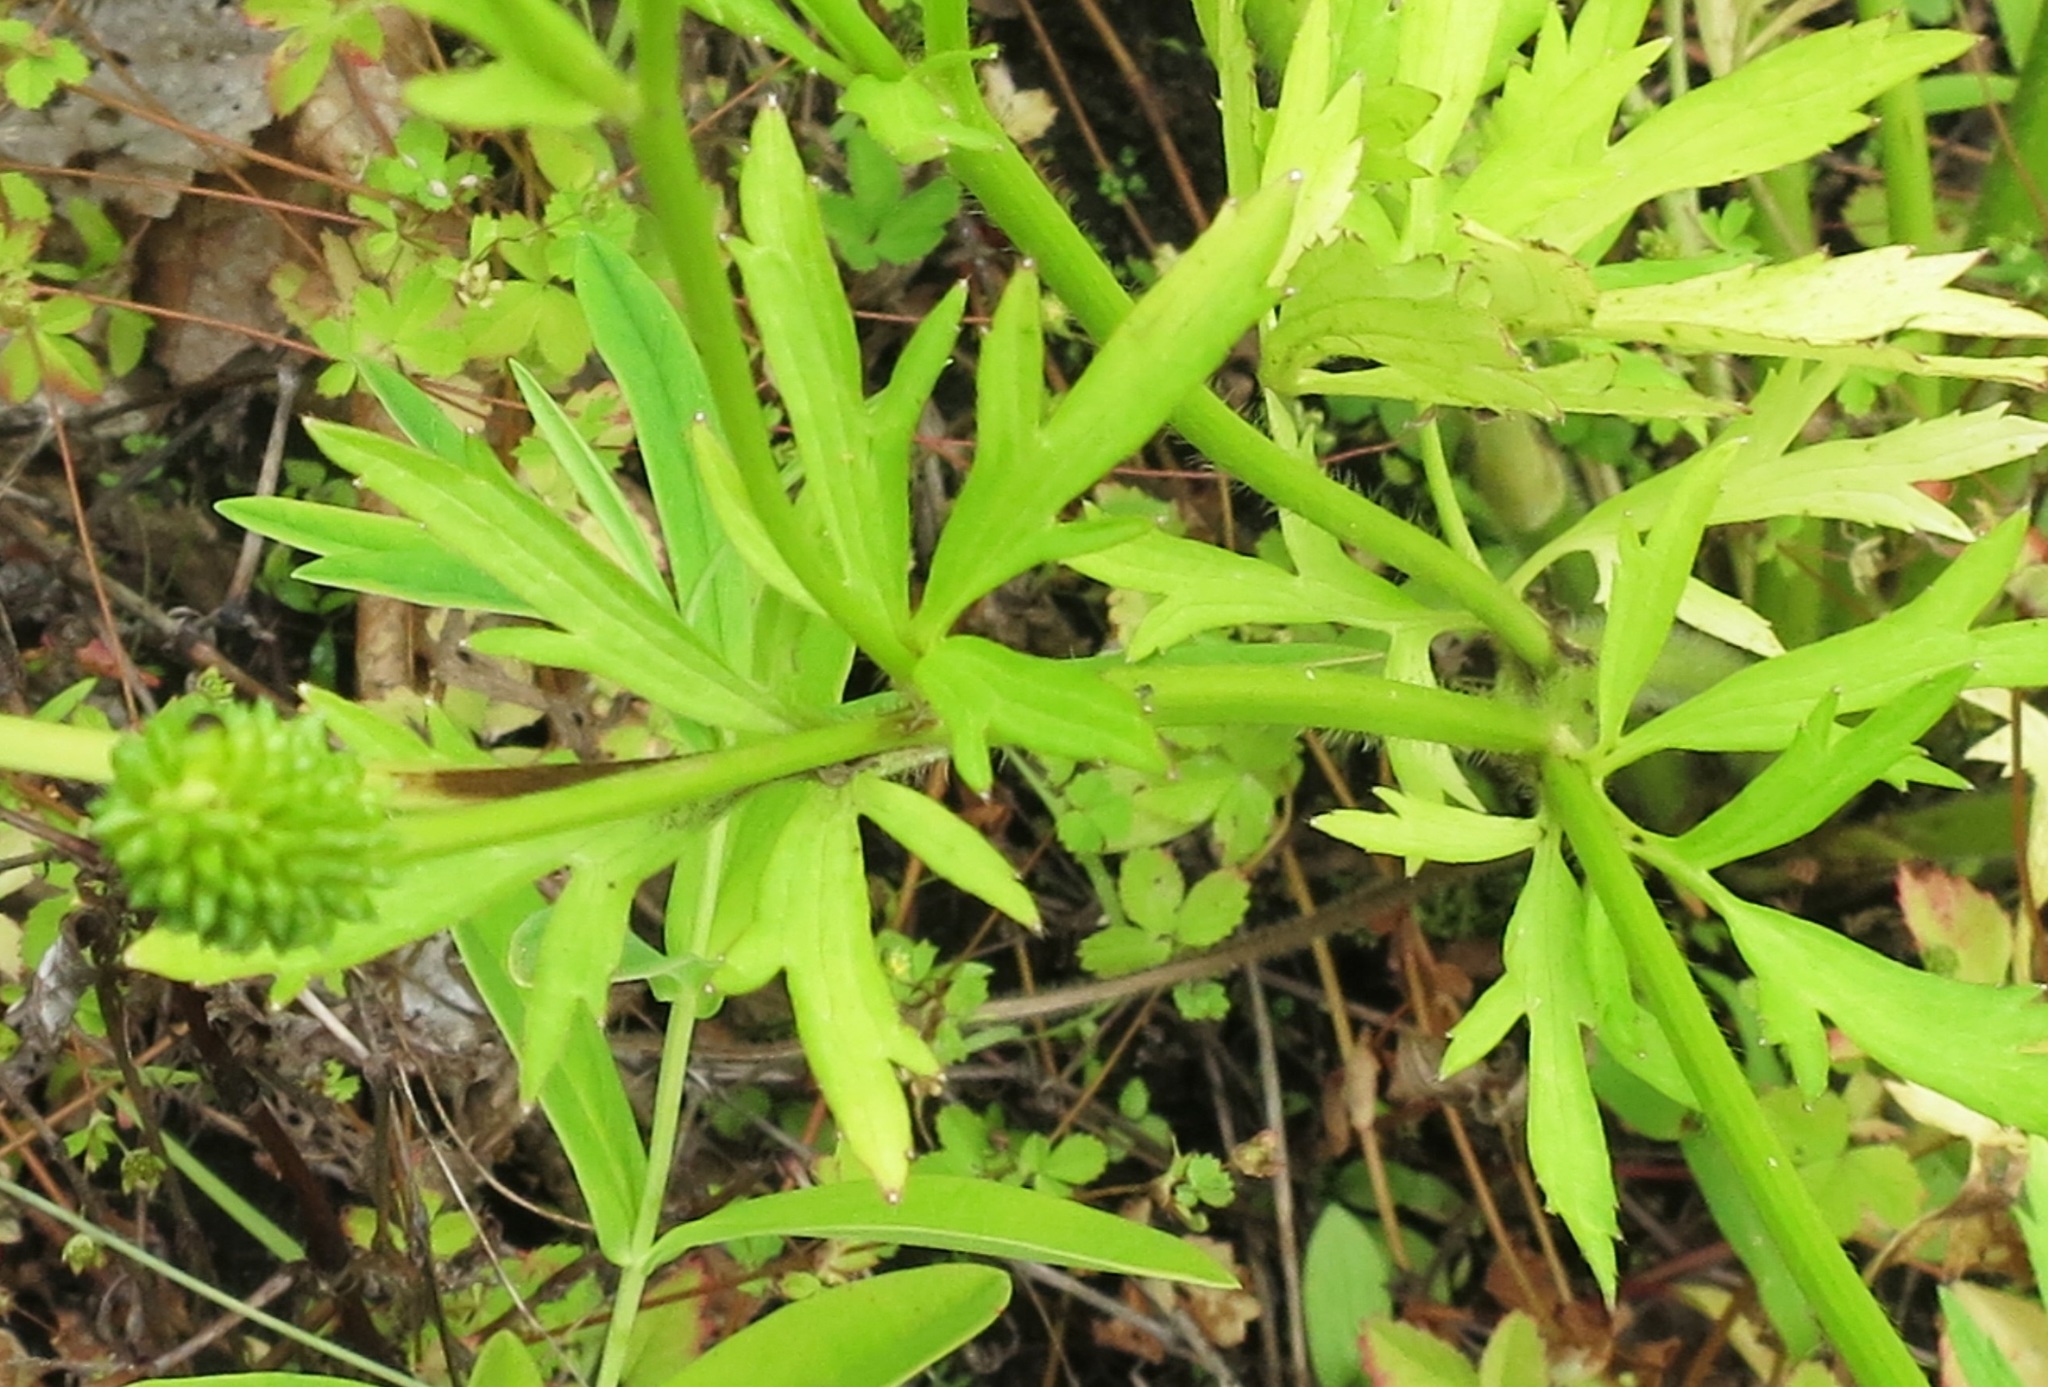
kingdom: Plantae
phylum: Tracheophyta
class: Magnoliopsida
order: Ranunculales
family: Ranunculaceae
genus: Ranunculus
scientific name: Ranunculus chinensis
